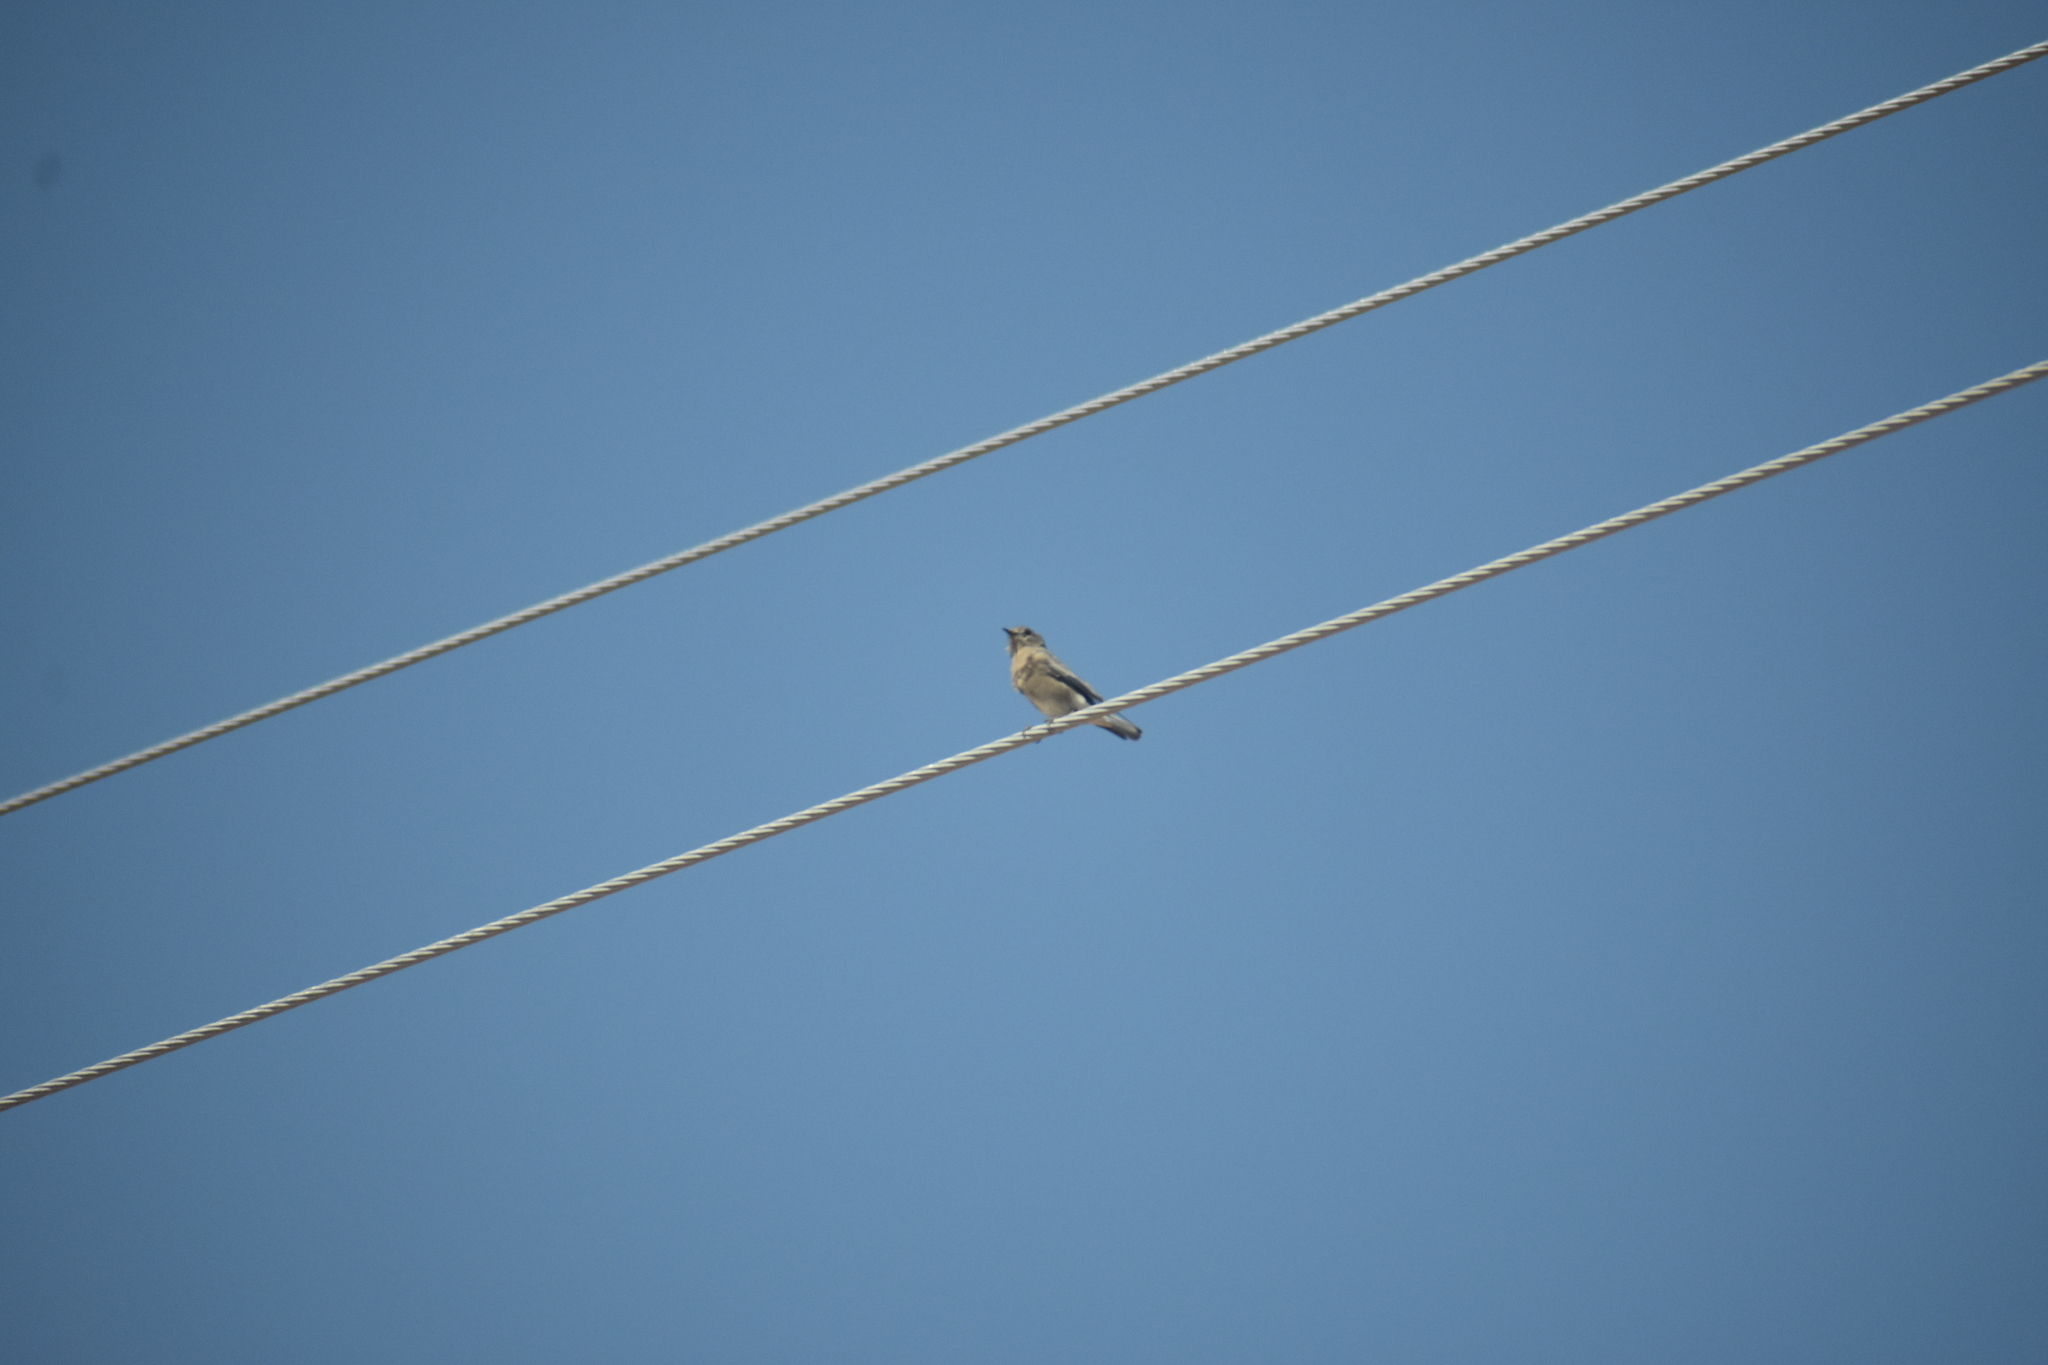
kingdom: Animalia
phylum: Chordata
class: Aves
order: Passeriformes
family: Turdidae
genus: Sialia
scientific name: Sialia currucoides
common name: Mountain bluebird
